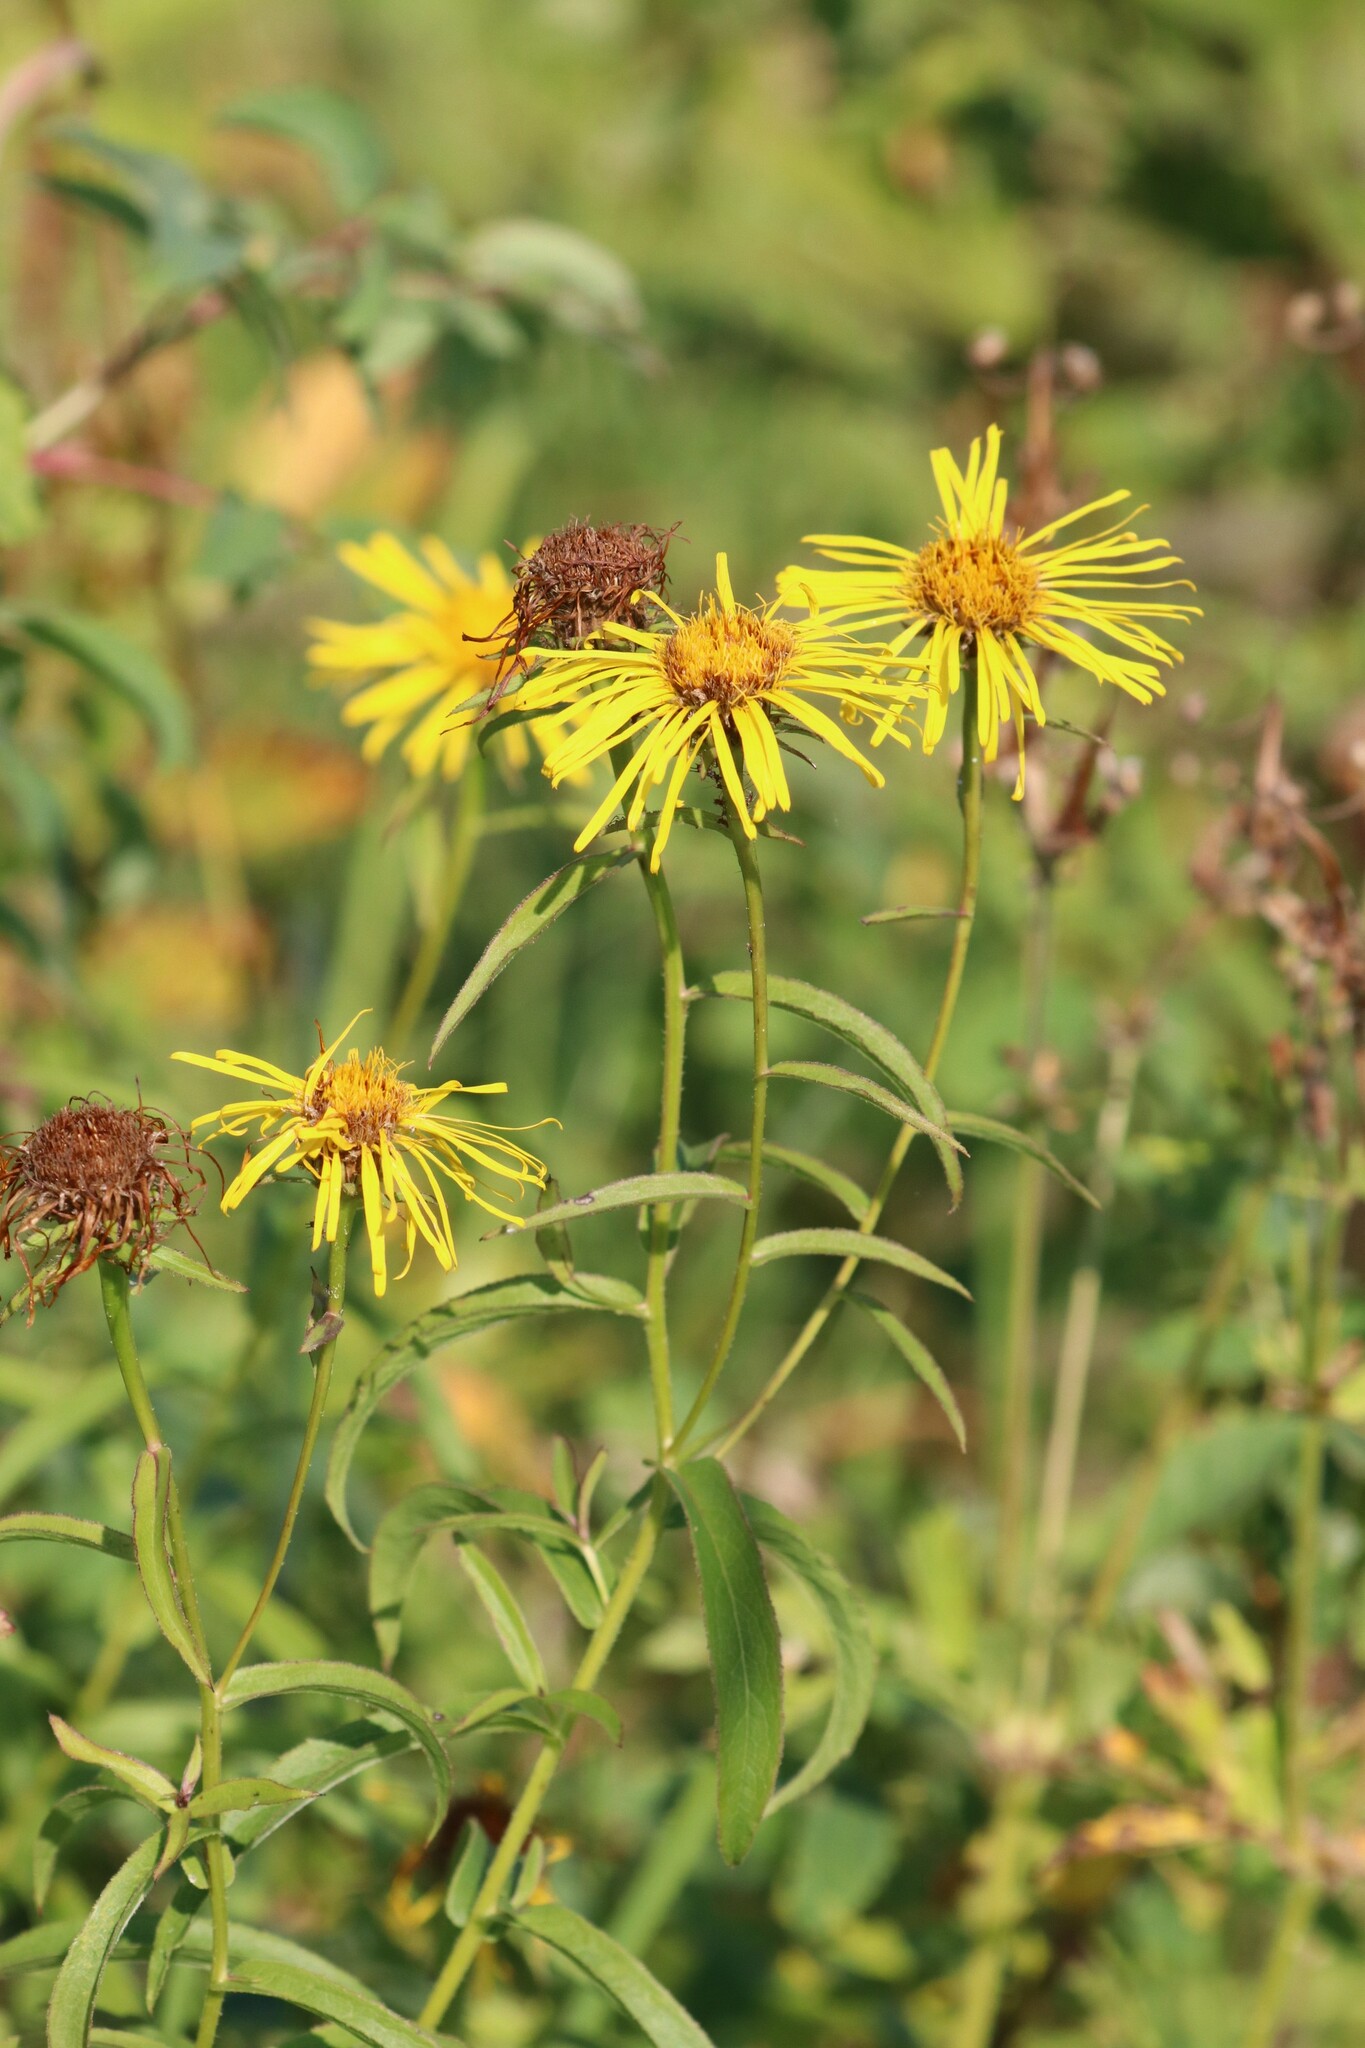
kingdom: Plantae
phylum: Tracheophyta
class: Magnoliopsida
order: Asterales
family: Asteraceae
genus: Pentanema
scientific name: Pentanema salicinum
